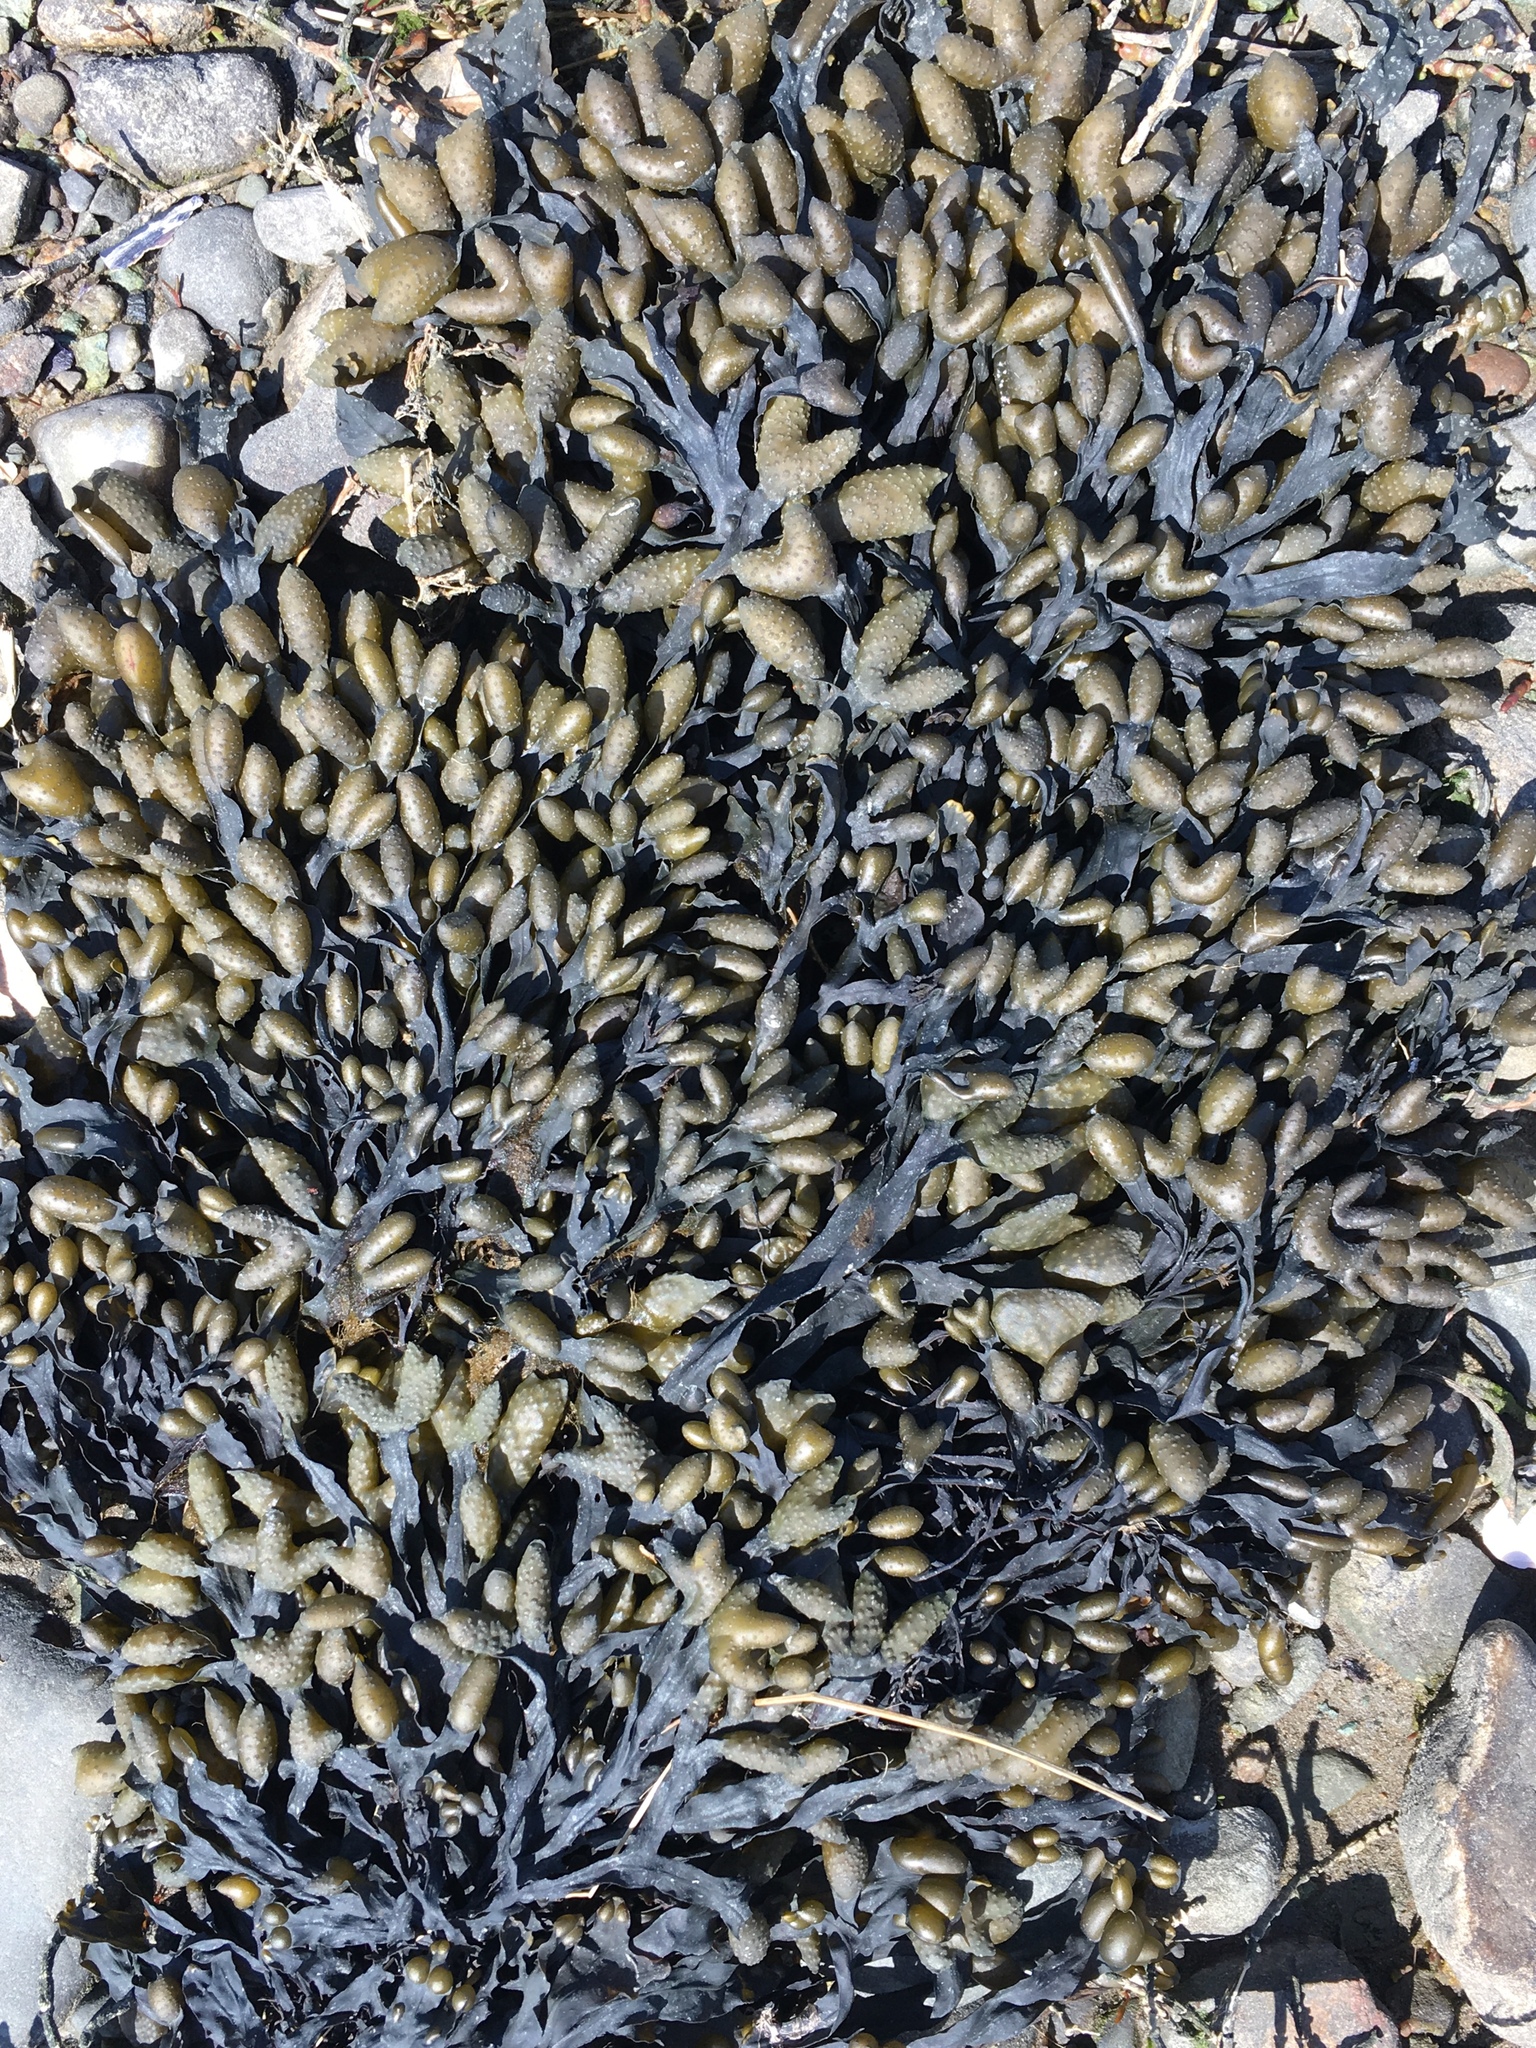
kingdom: Chromista
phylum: Ochrophyta
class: Phaeophyceae
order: Fucales
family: Fucaceae
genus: Fucus
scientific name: Fucus distichus
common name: Rockweed
